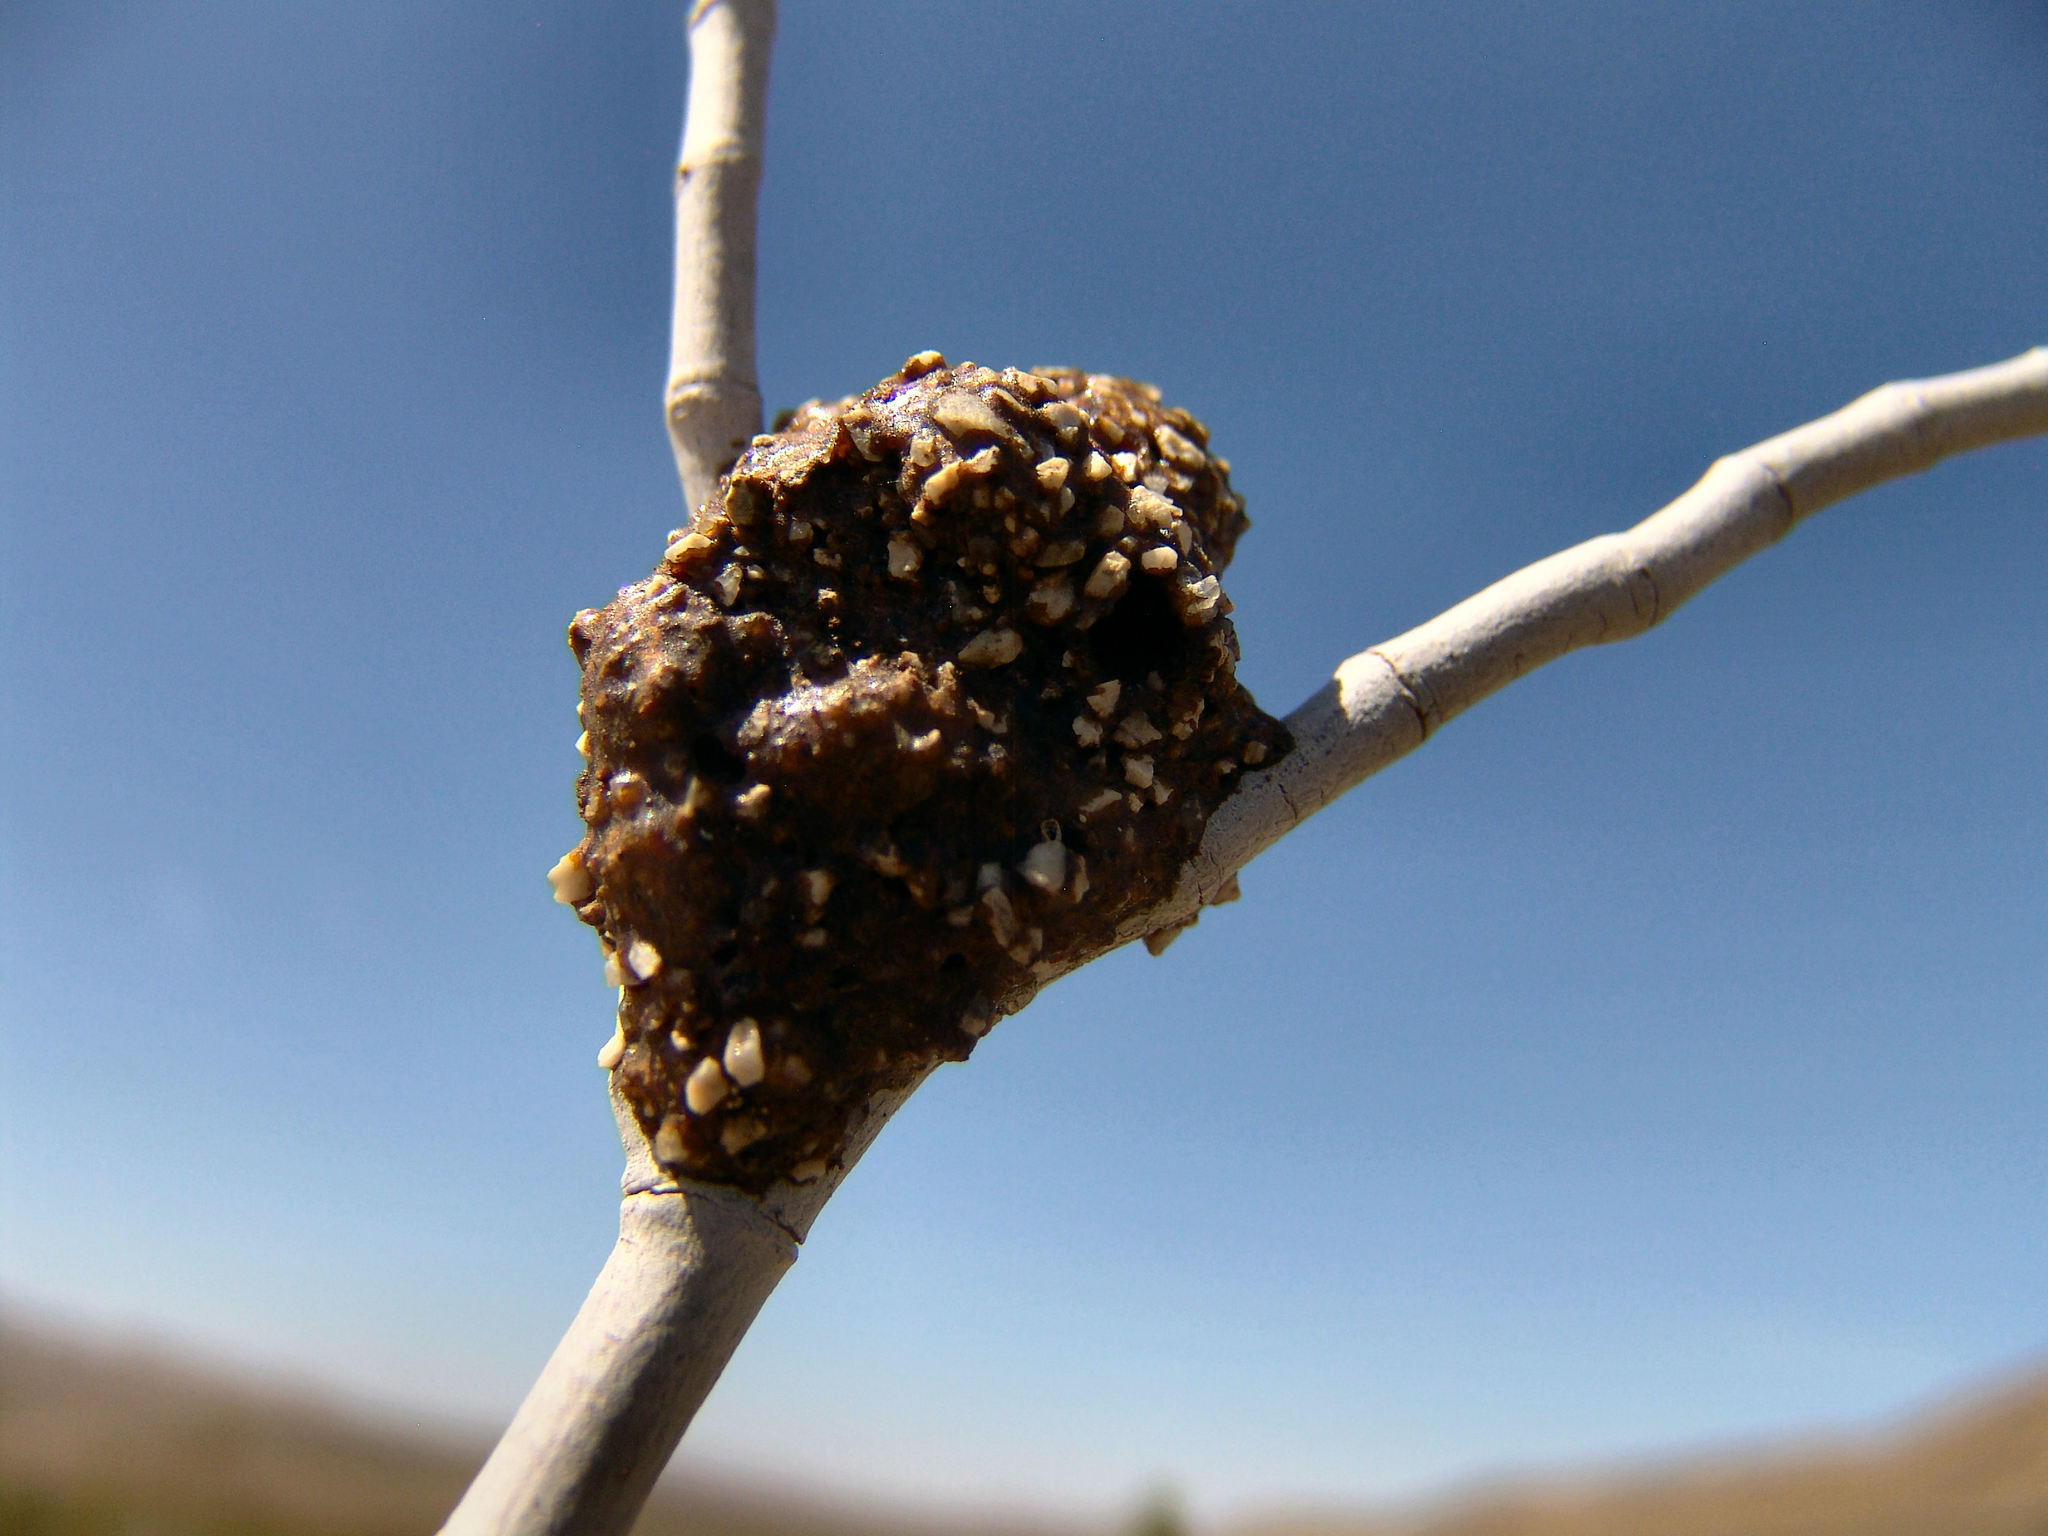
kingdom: Animalia
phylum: Arthropoda
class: Insecta
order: Hymenoptera
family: Megachilidae
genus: Dianthidium
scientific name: Dianthidium
